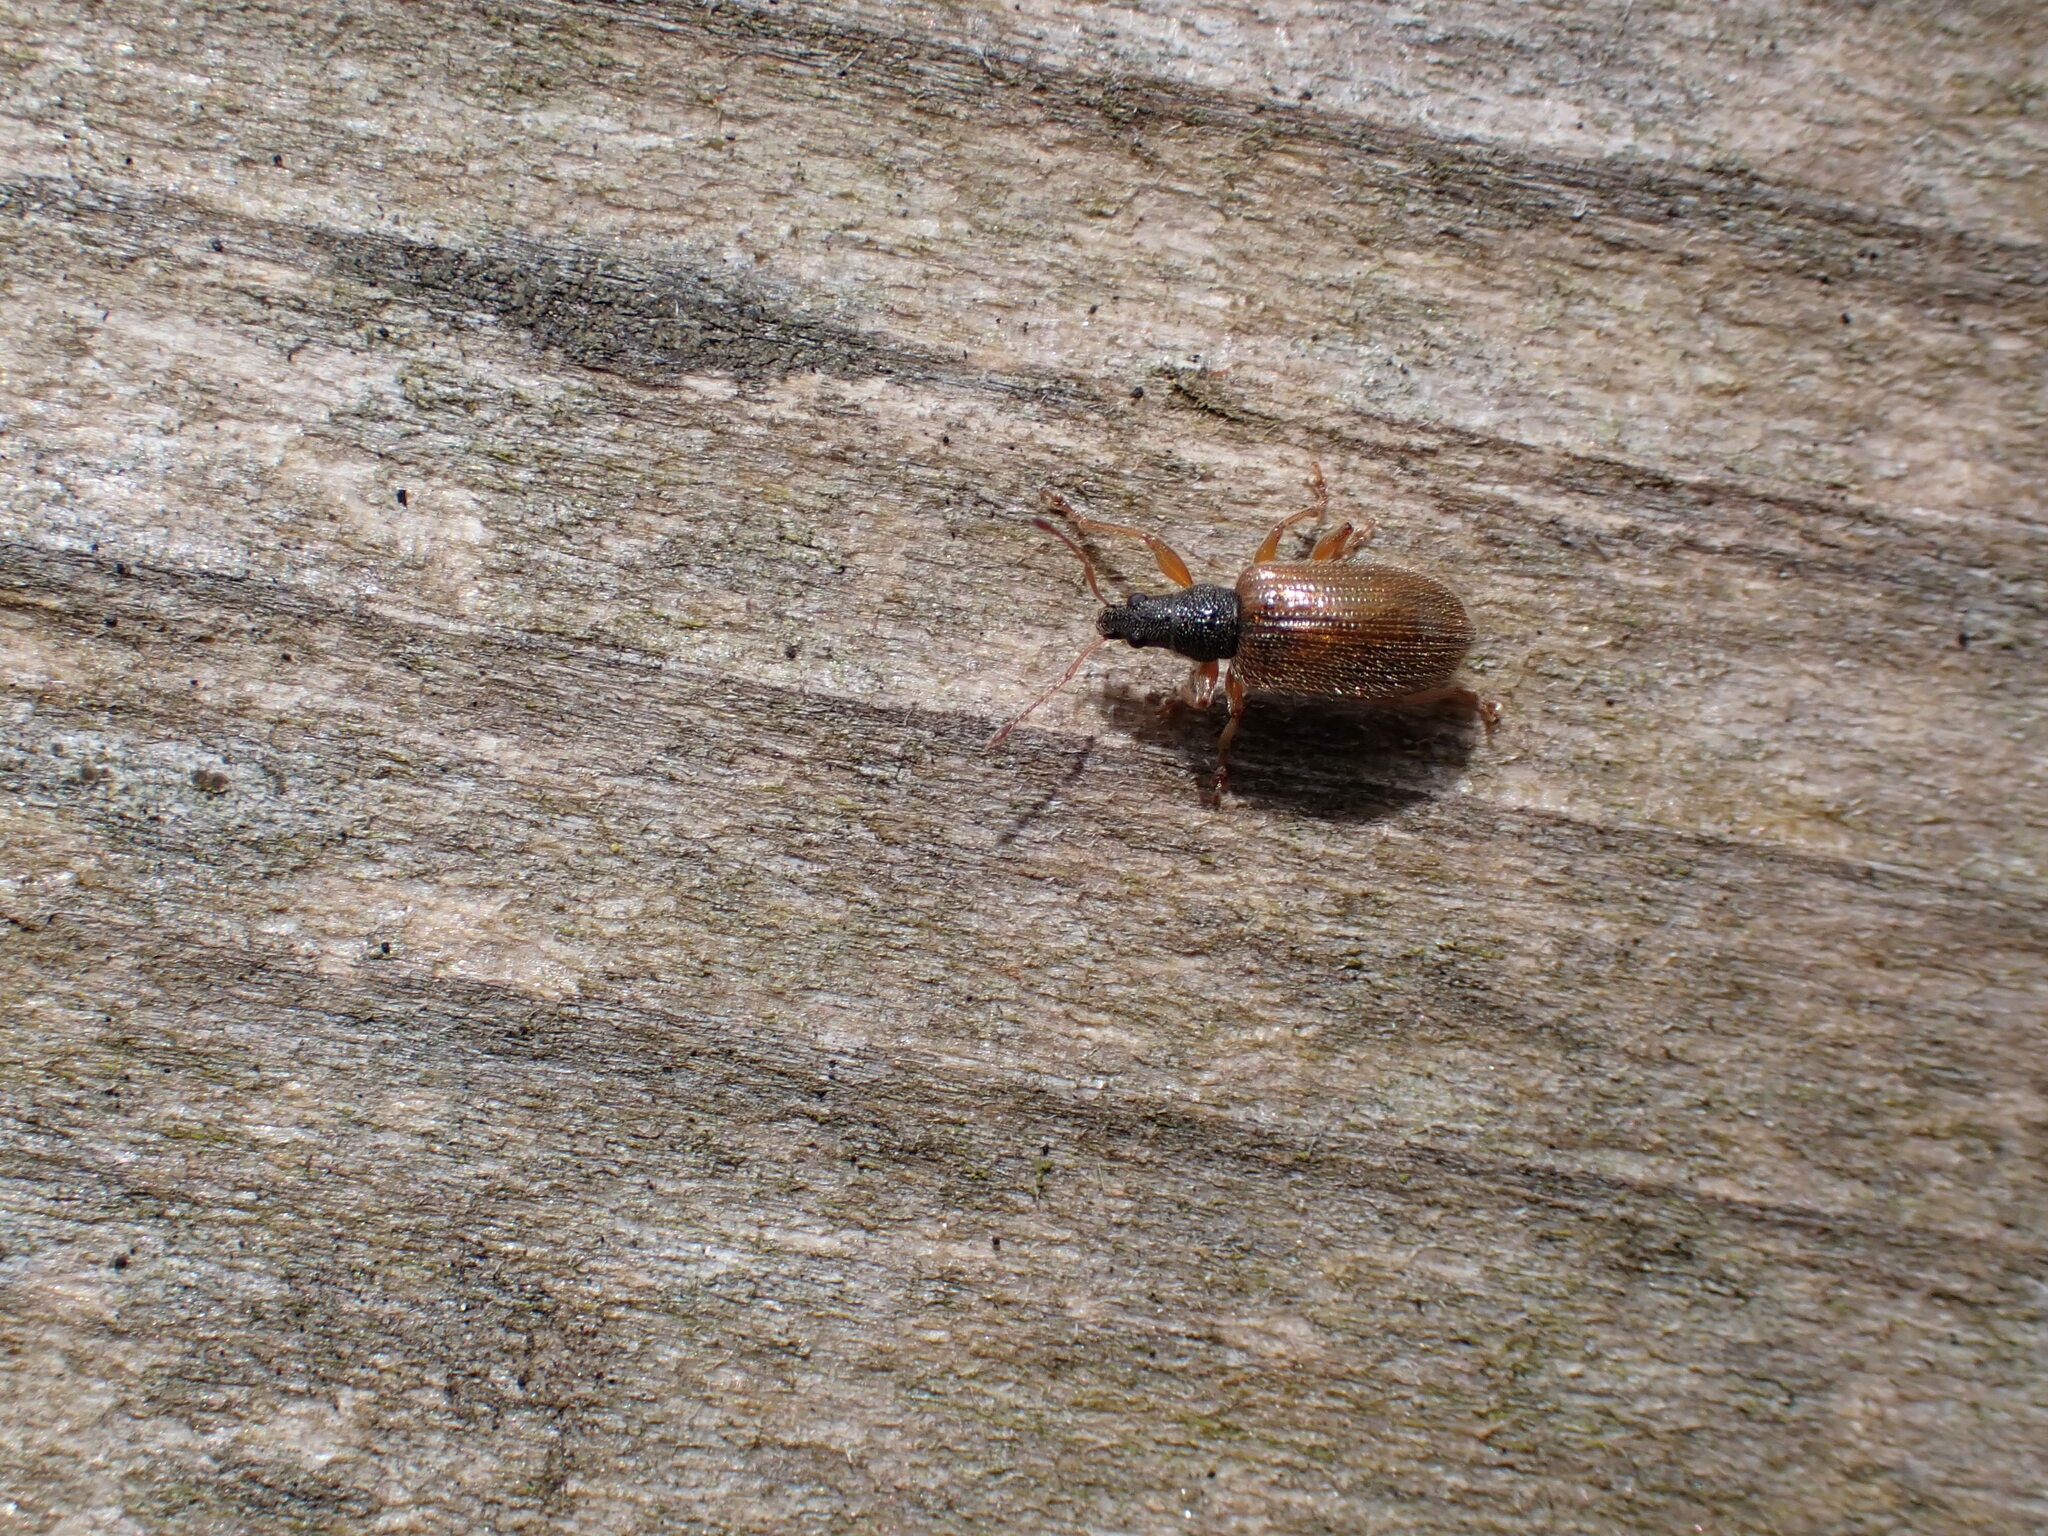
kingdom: Animalia
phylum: Arthropoda
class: Insecta
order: Coleoptera
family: Curculionidae
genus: Phyllobius
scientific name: Phyllobius oblongus
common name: Brown leaf weevil
